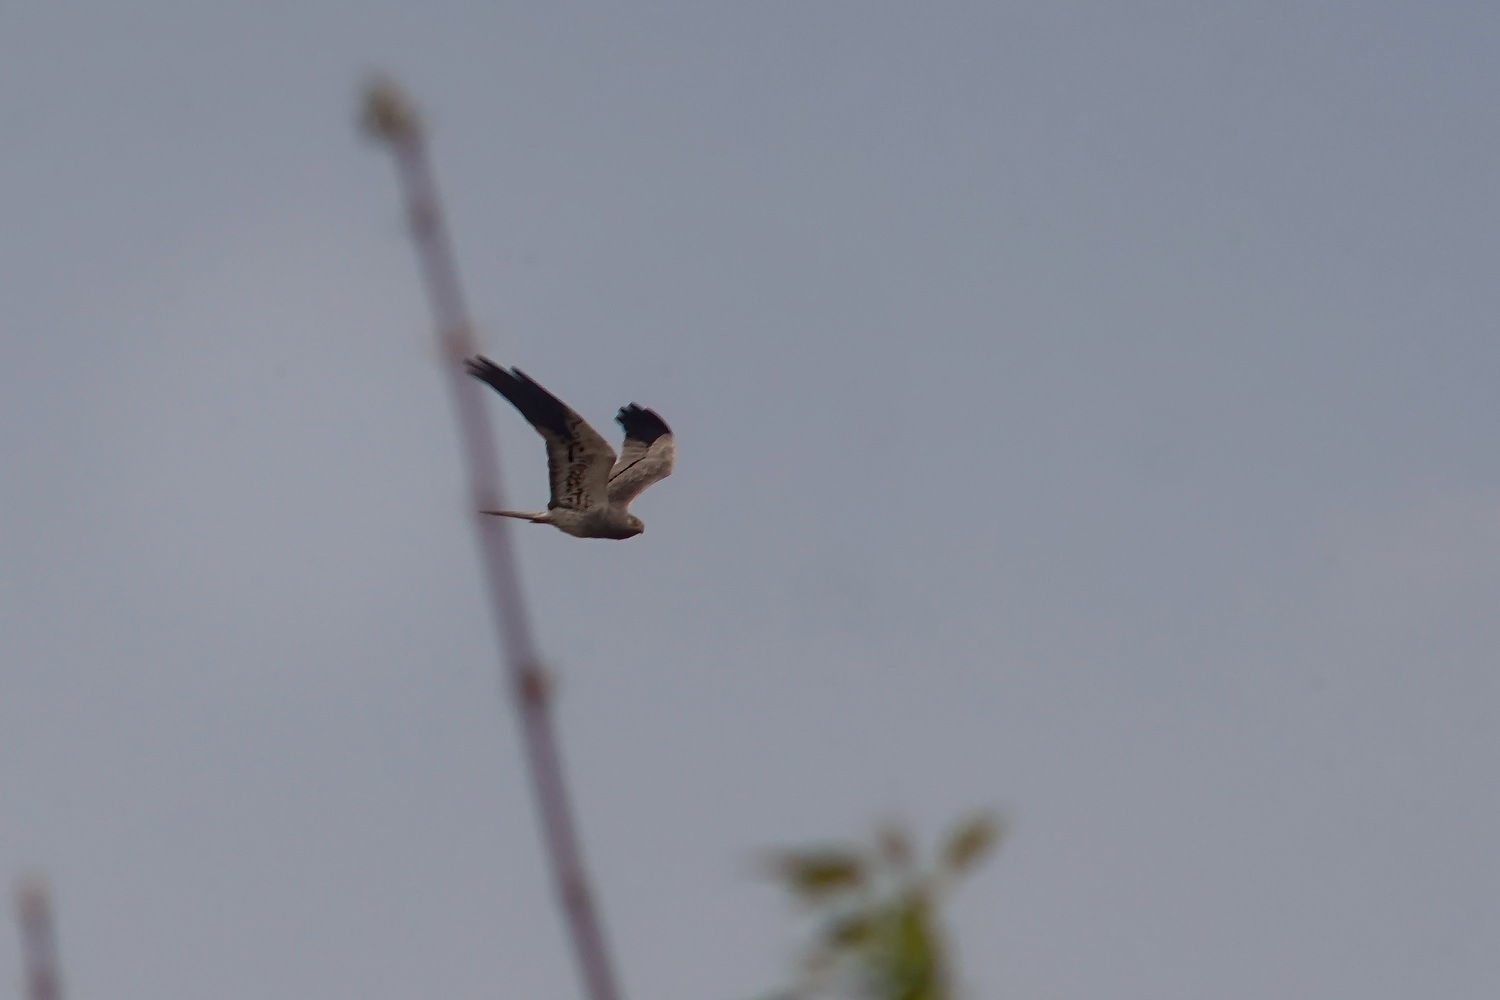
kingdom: Animalia
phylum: Chordata
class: Aves
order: Accipitriformes
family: Accipitridae
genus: Circus
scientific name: Circus pygargus
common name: Montagu's harrier
